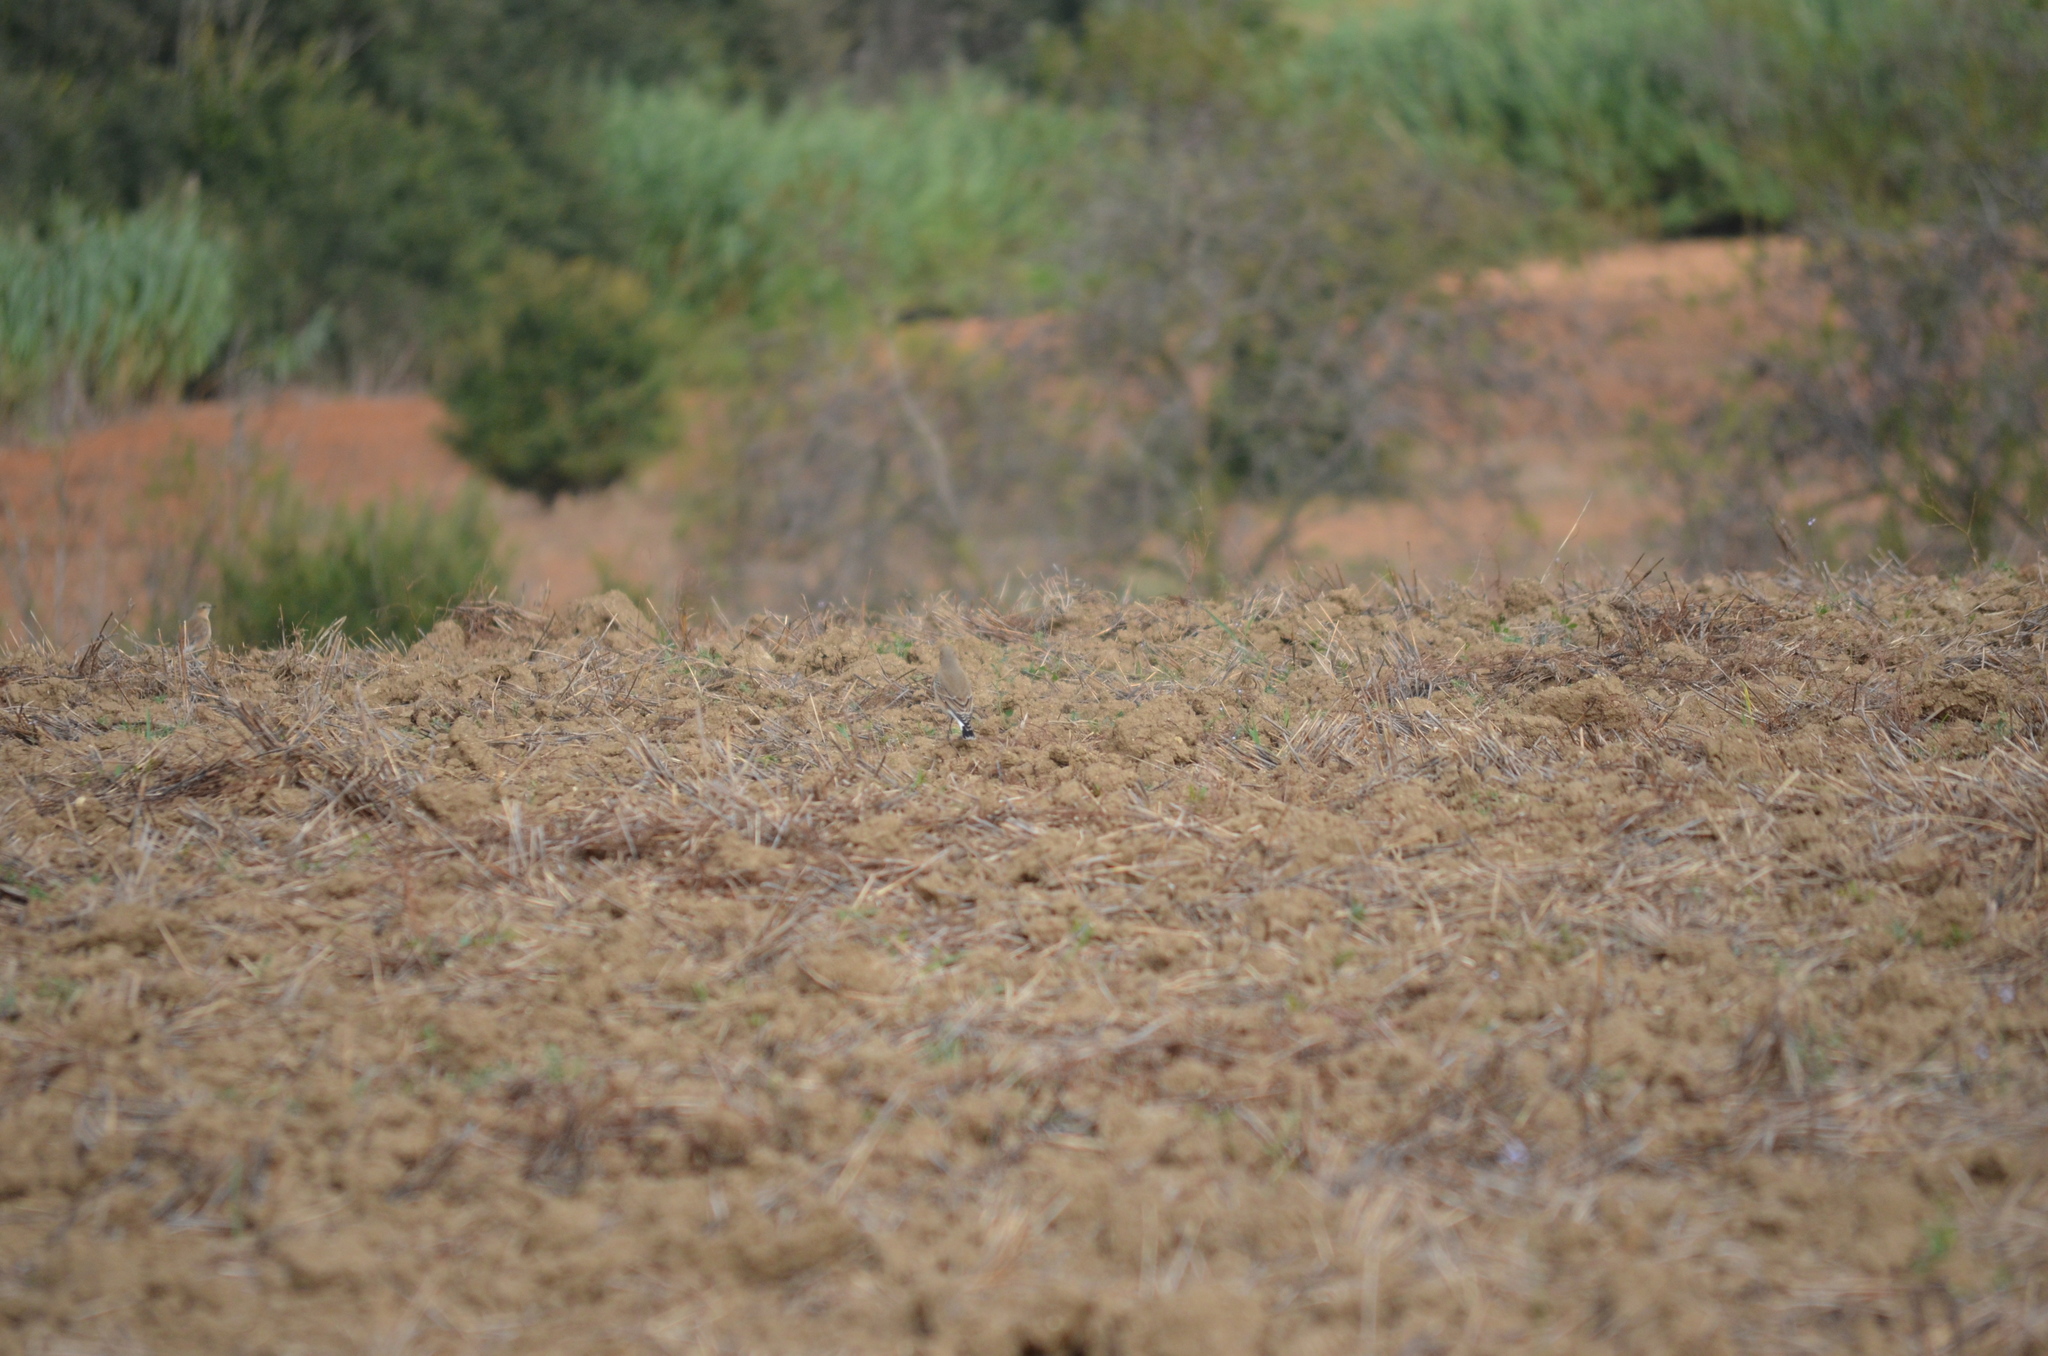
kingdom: Animalia
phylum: Chordata
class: Aves
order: Passeriformes
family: Muscicapidae
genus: Oenanthe
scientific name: Oenanthe oenanthe
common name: Northern wheatear
